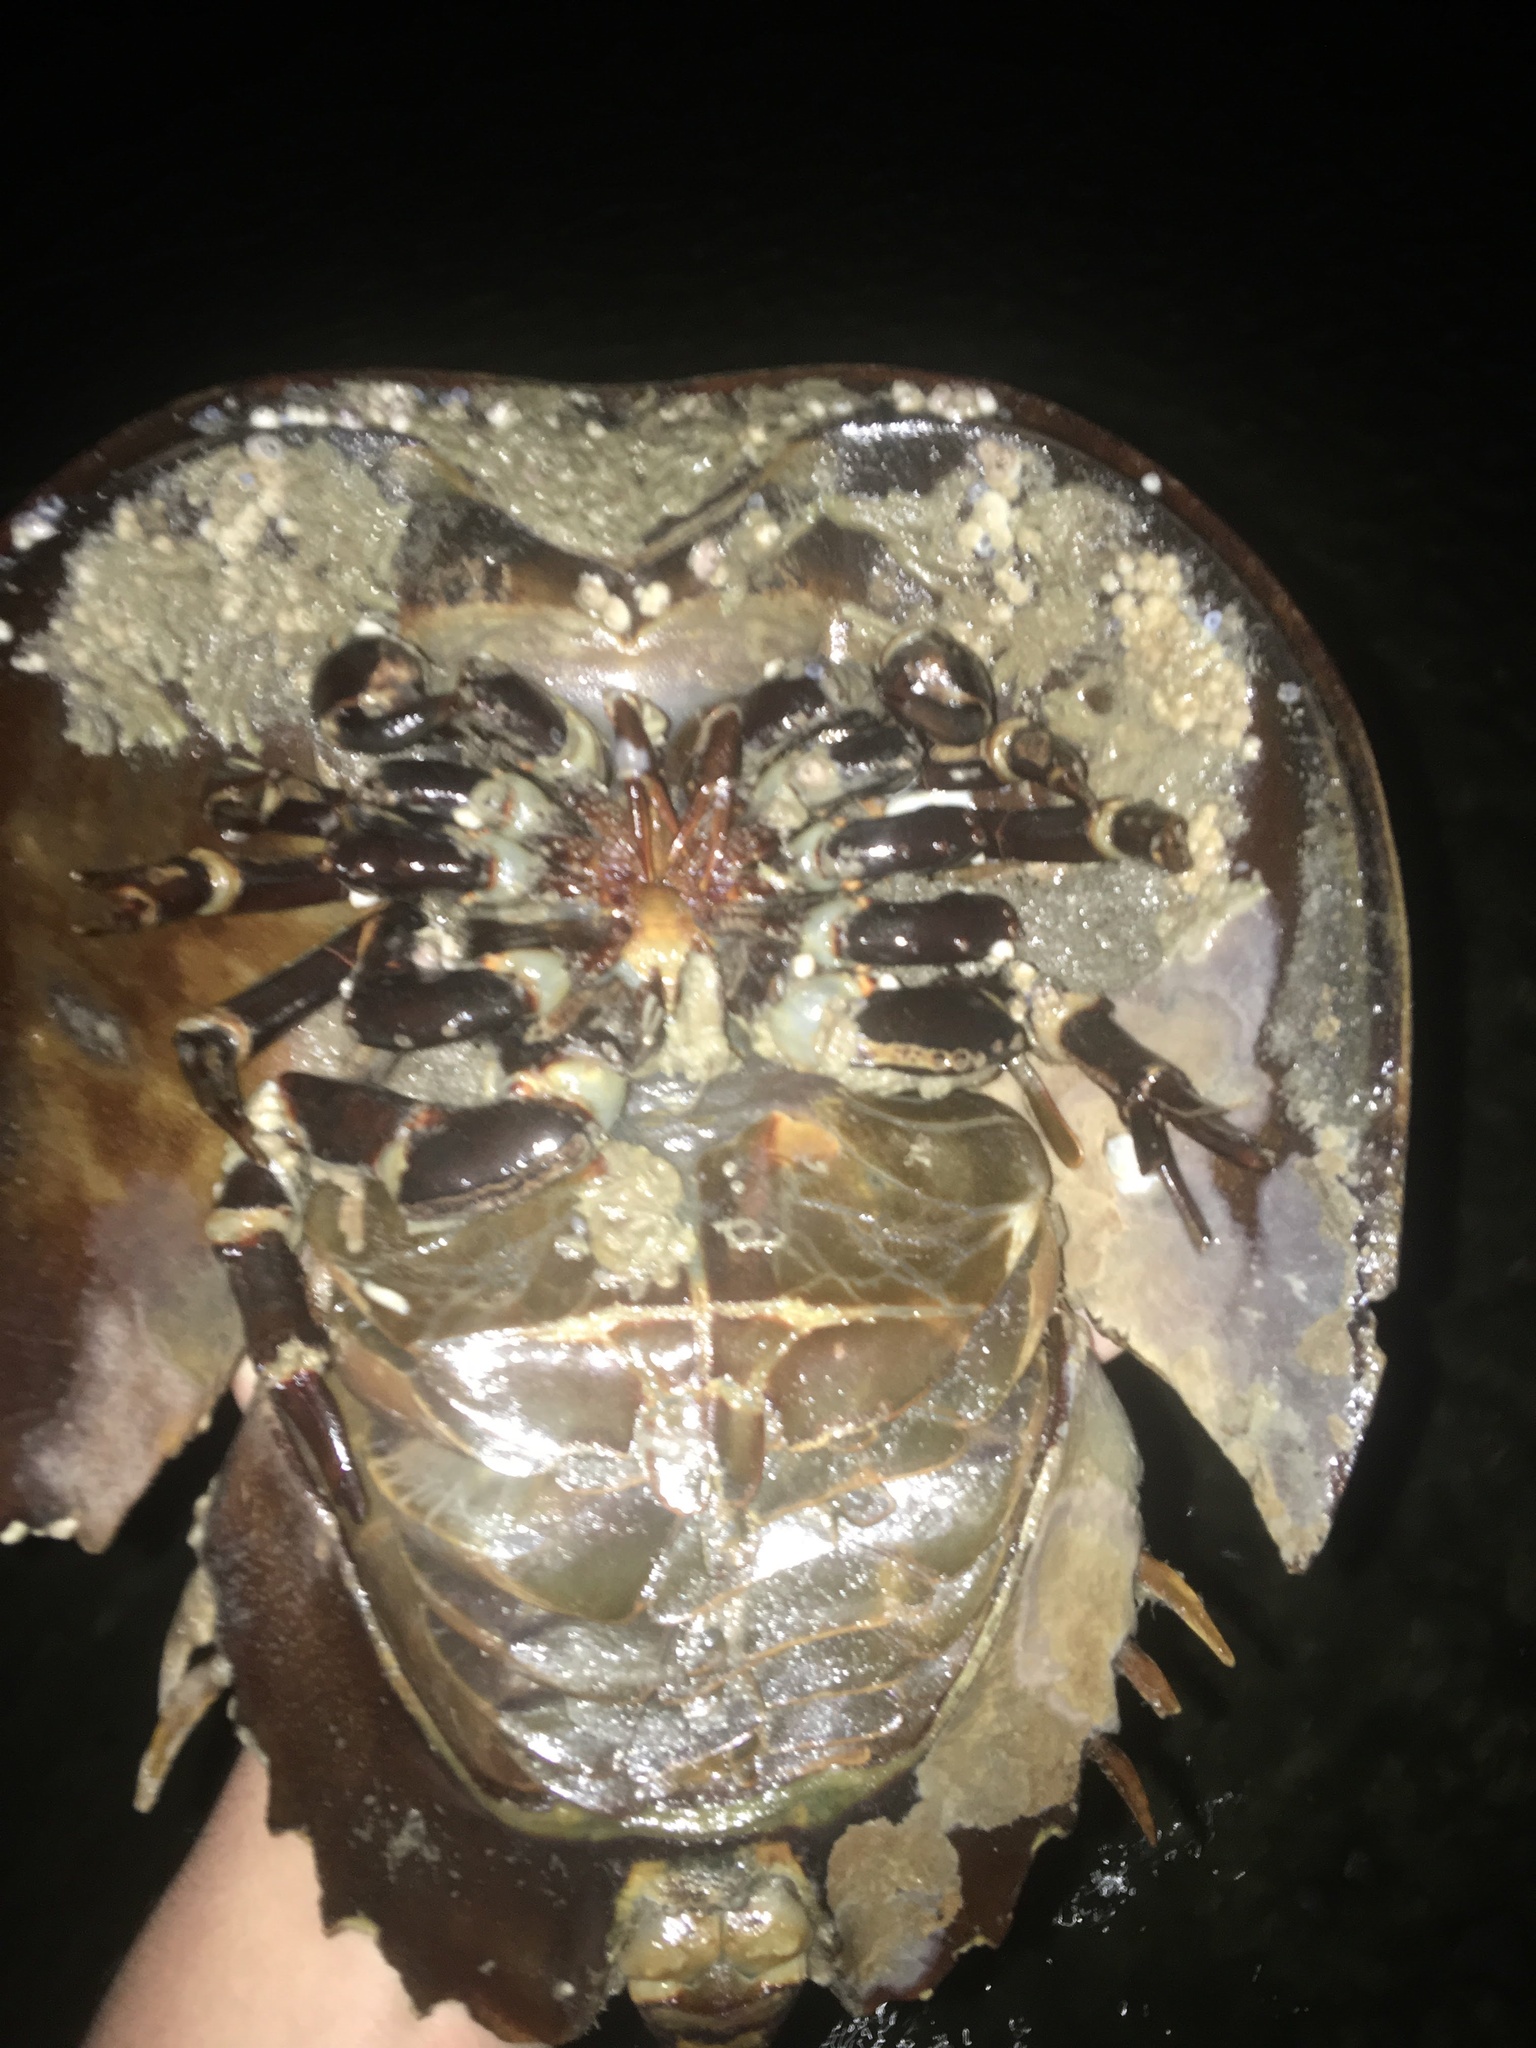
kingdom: Animalia
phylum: Arthropoda
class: Merostomata
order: Xiphosurida
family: Limulidae
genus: Limulus
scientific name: Limulus polyphemus
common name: Horseshoe crab
